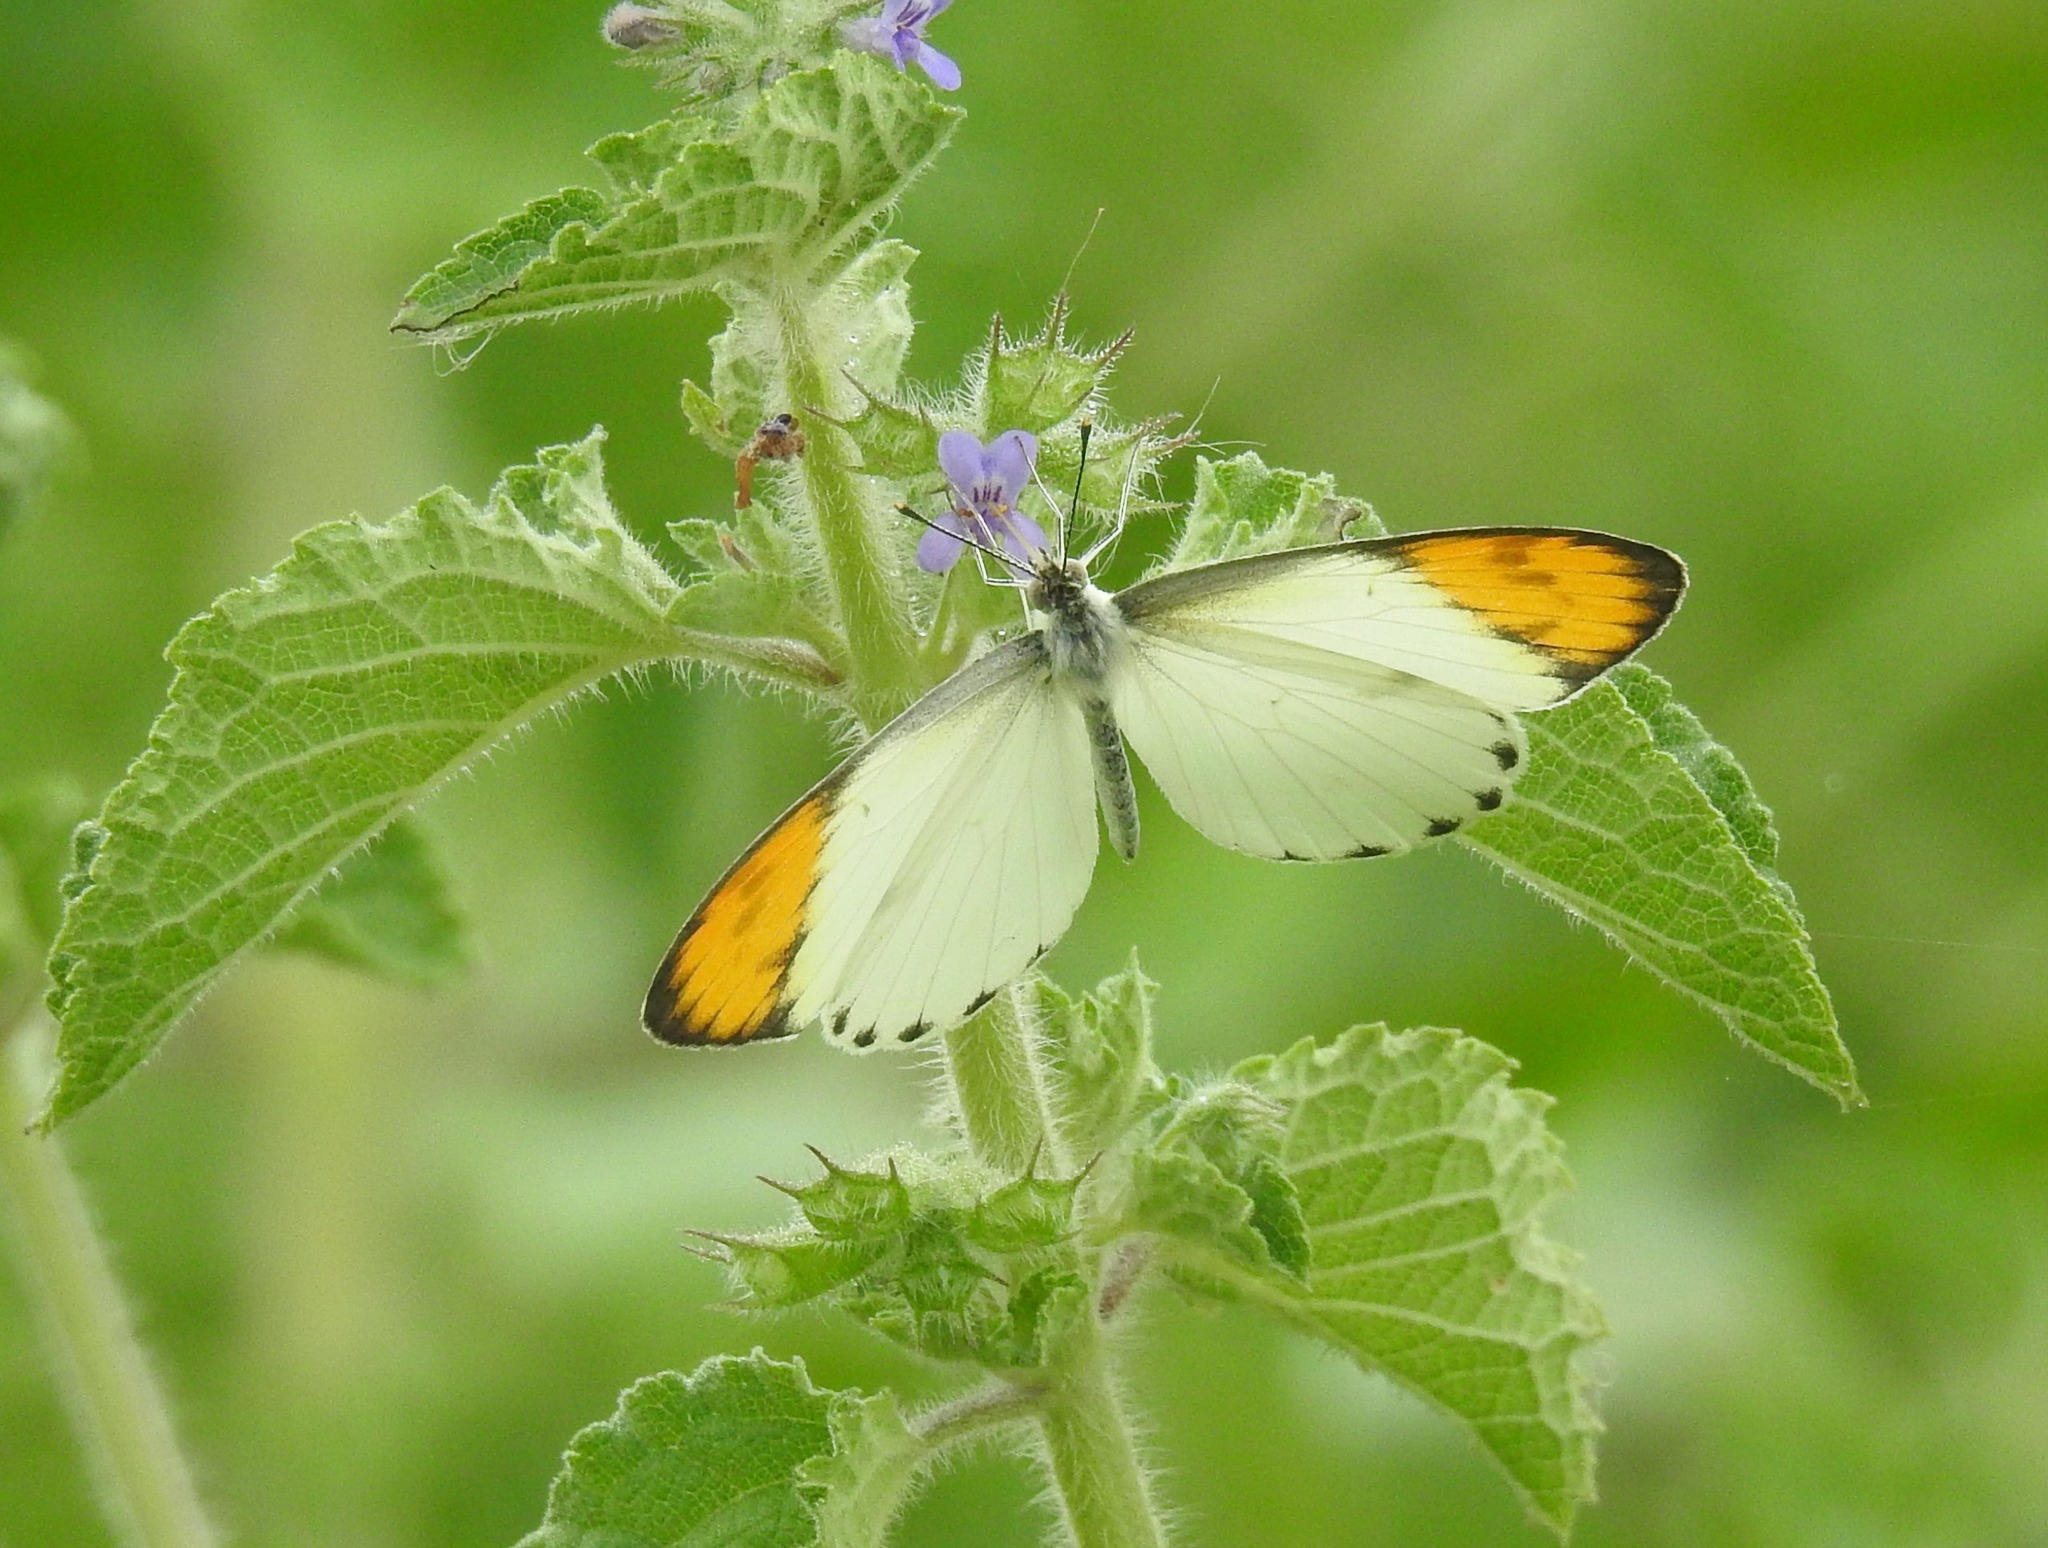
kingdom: Animalia
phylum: Arthropoda
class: Insecta
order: Lepidoptera
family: Pieridae
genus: Colotis
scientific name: Colotis aurora
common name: Plain orange-tip
